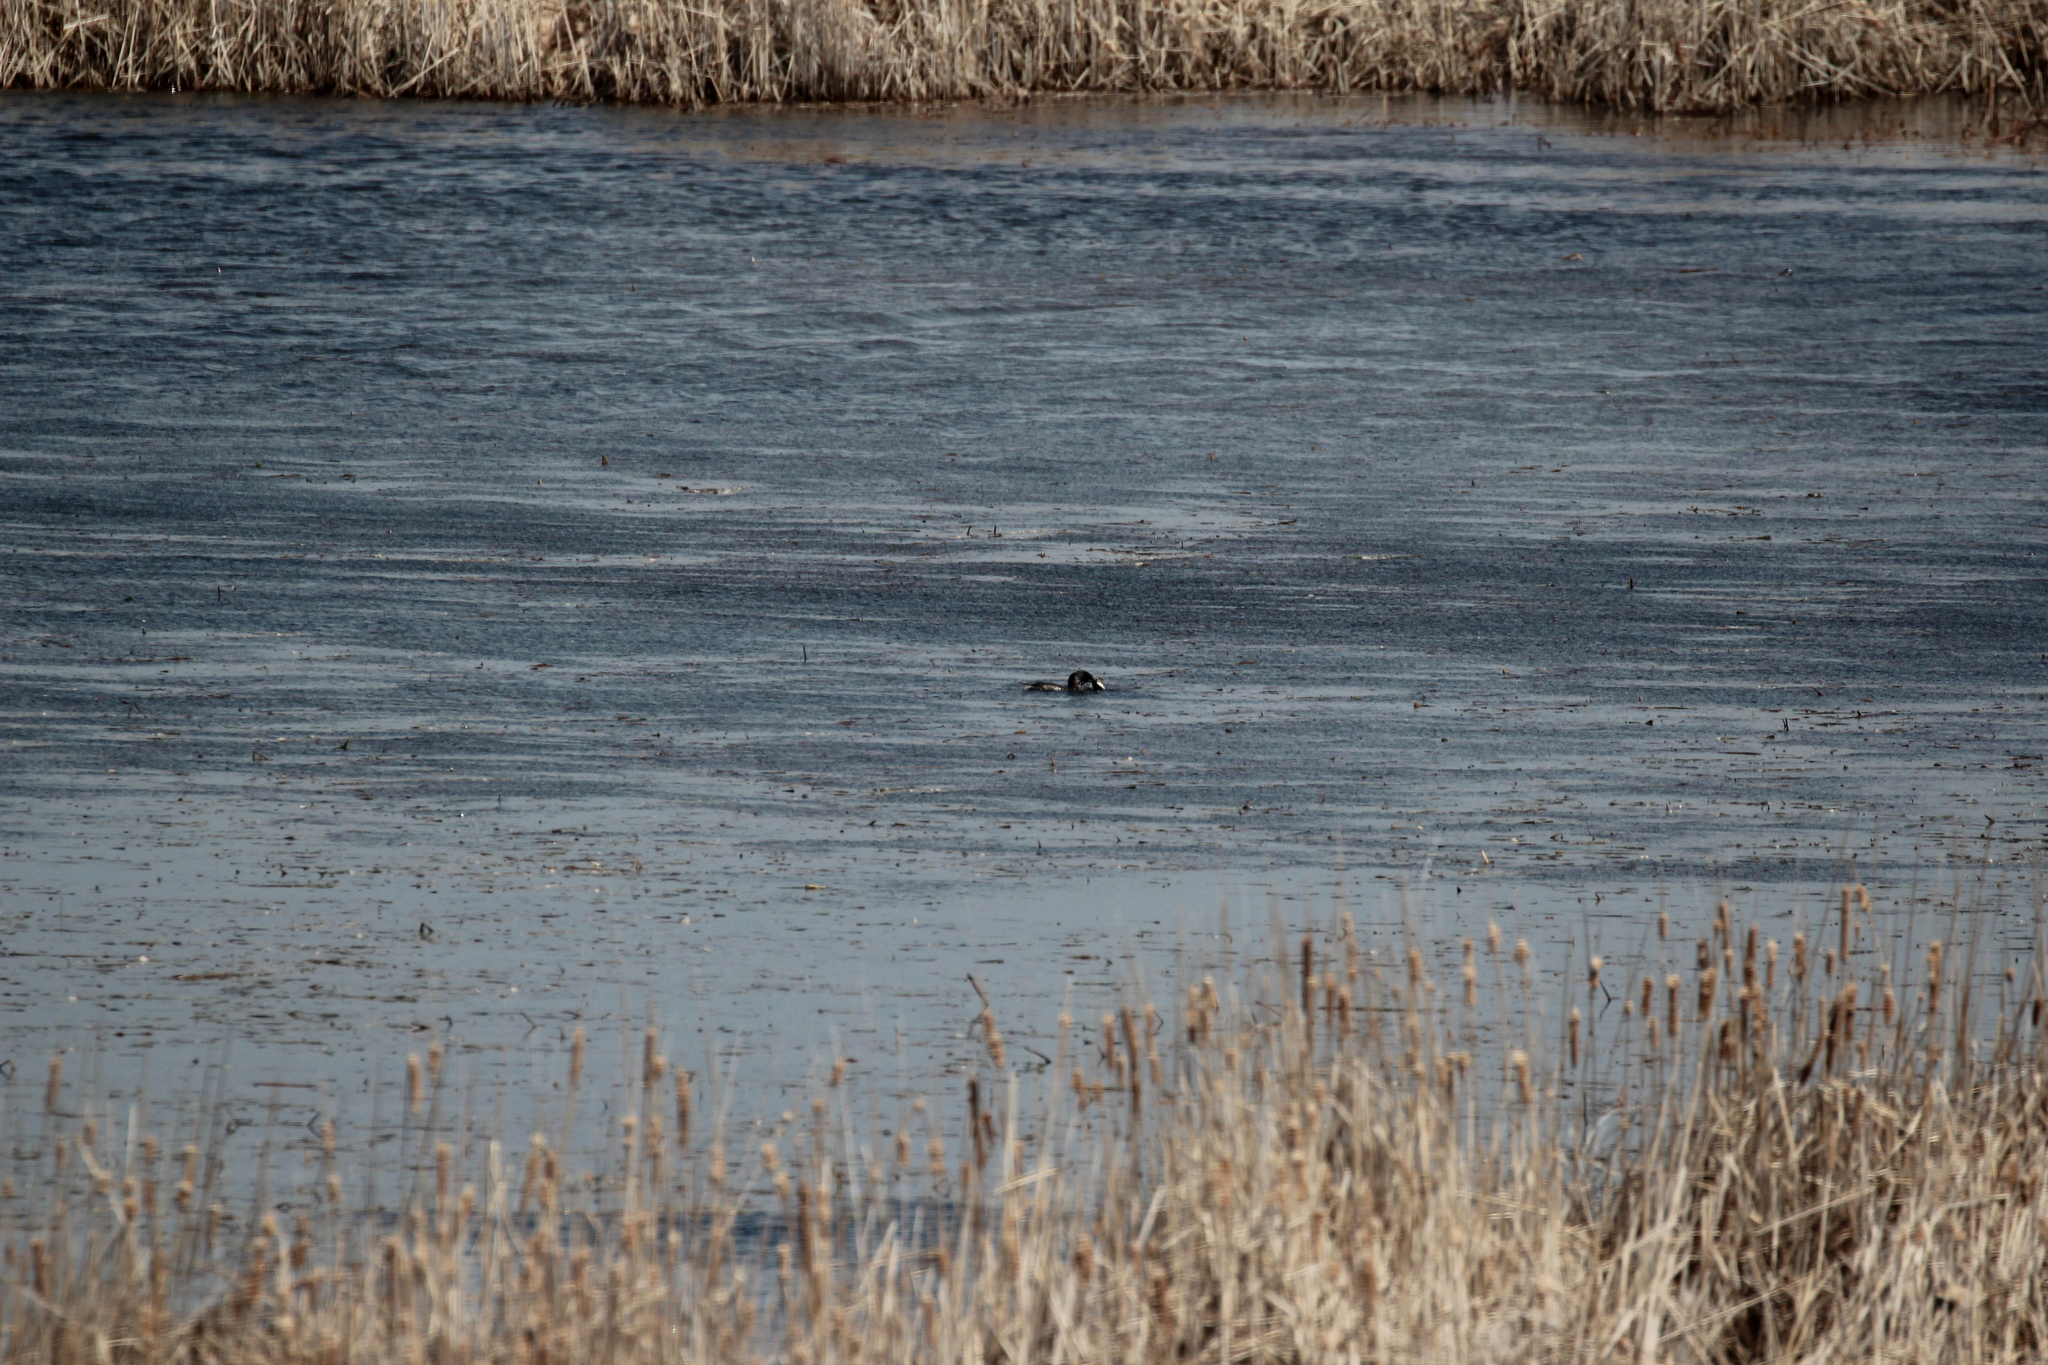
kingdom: Animalia
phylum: Chordata
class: Aves
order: Podicipediformes
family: Podicipedidae
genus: Podilymbus
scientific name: Podilymbus podiceps
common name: Pied-billed grebe
